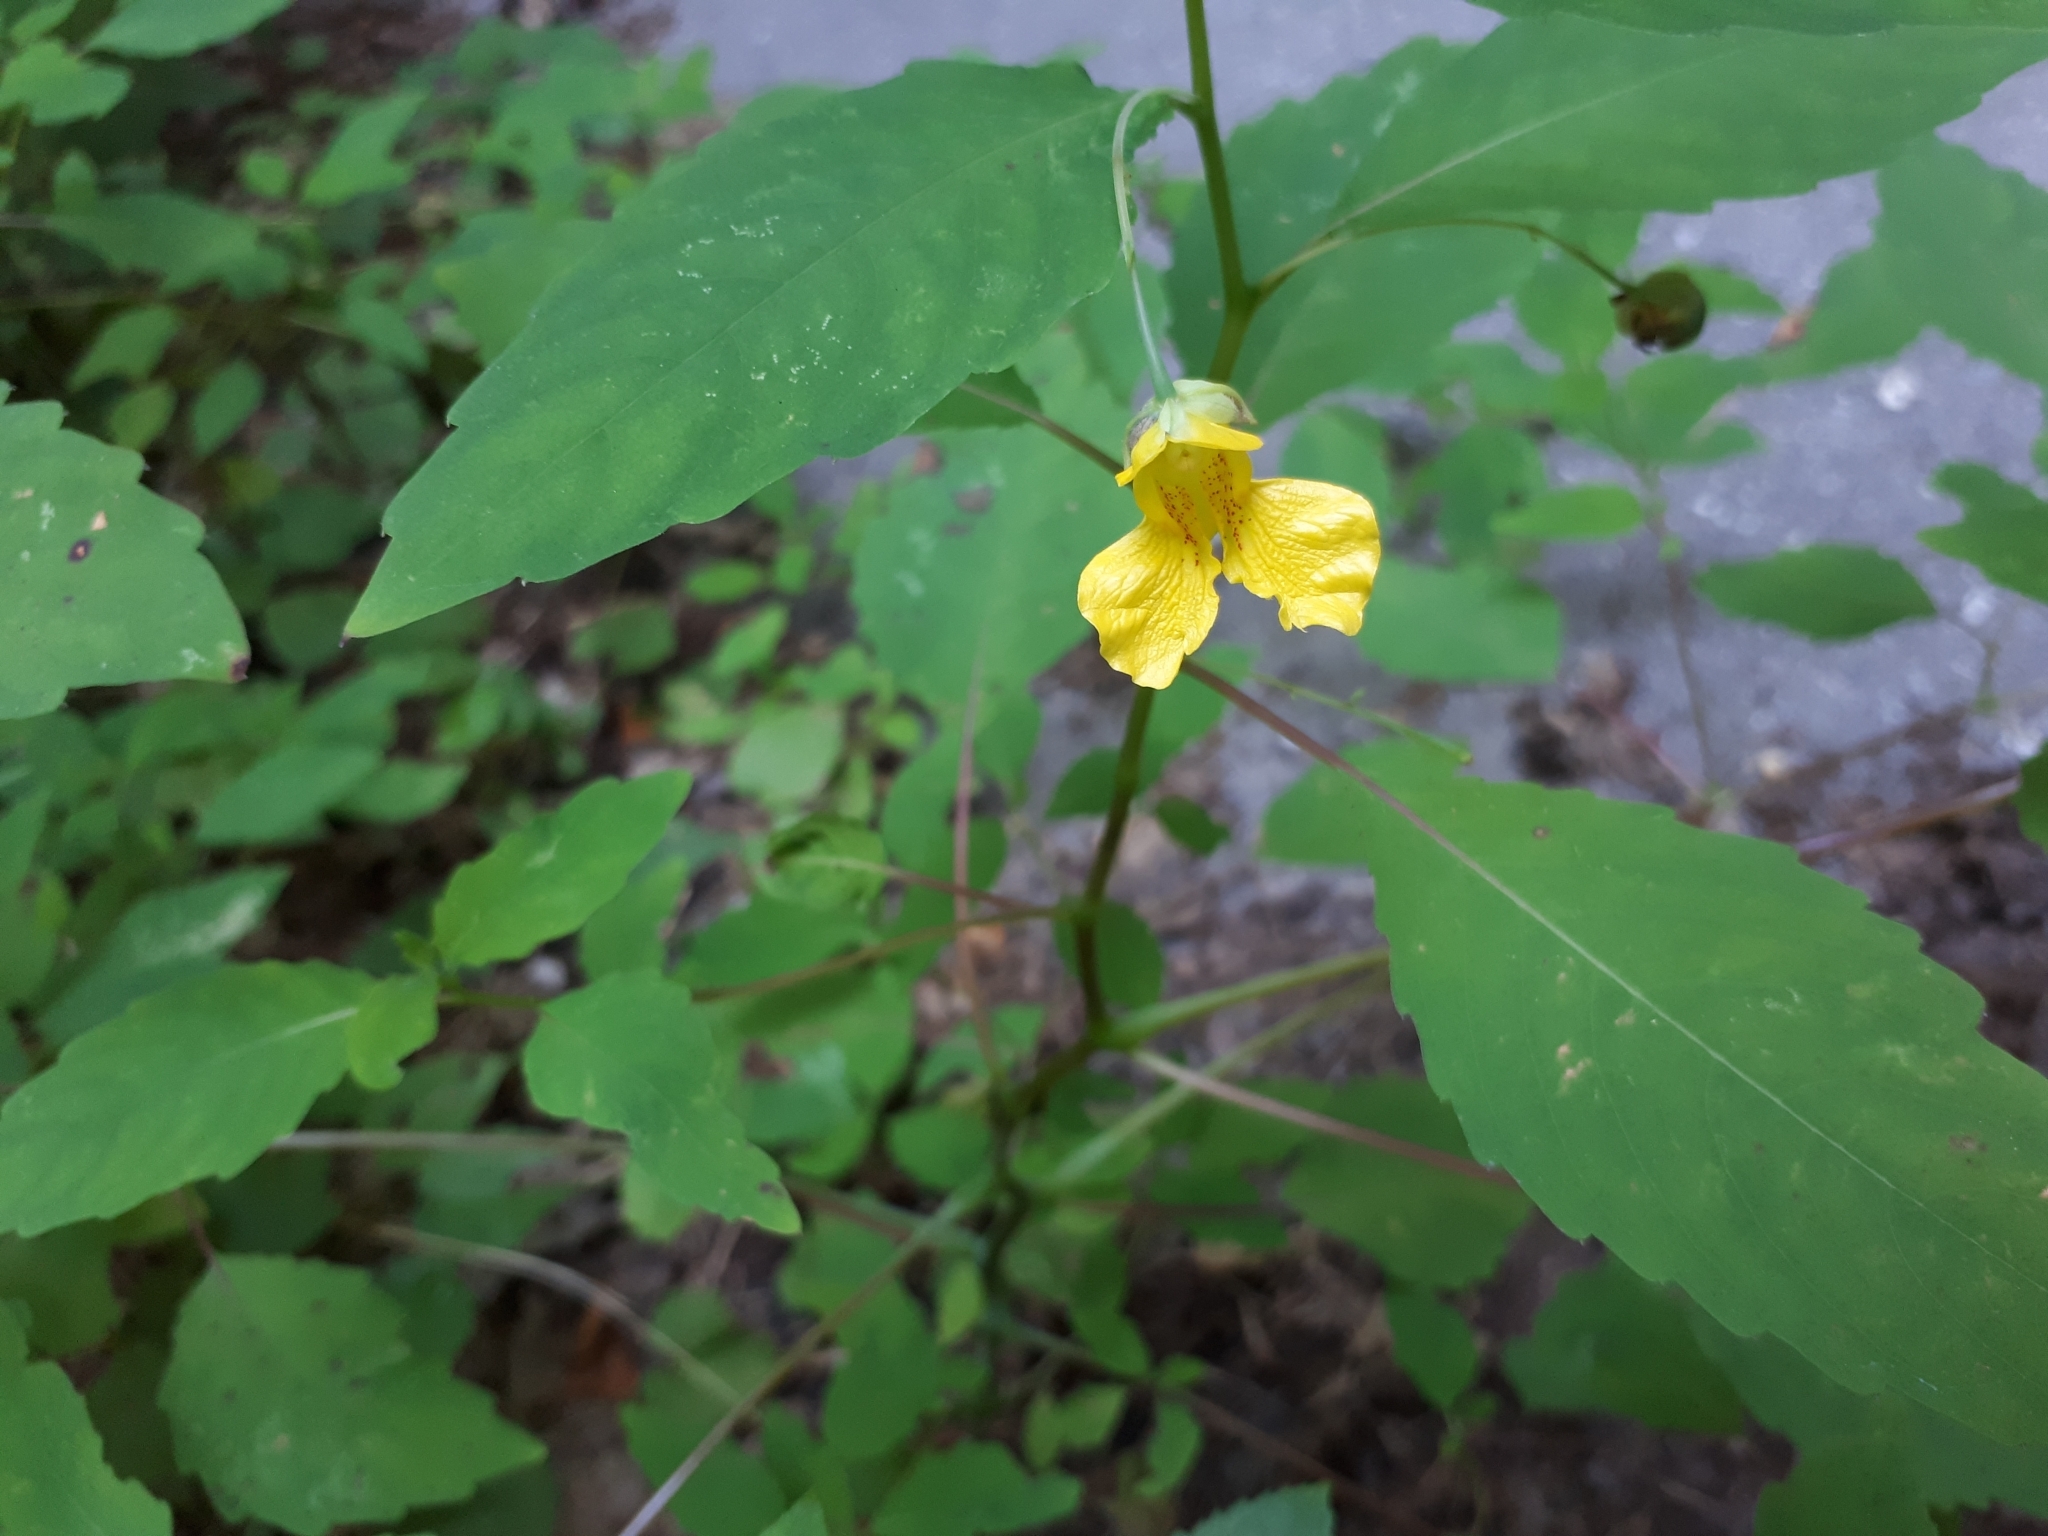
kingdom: Plantae
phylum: Tracheophyta
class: Magnoliopsida
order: Ericales
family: Balsaminaceae
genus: Impatiens
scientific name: Impatiens pallida
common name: Pale snapweed
